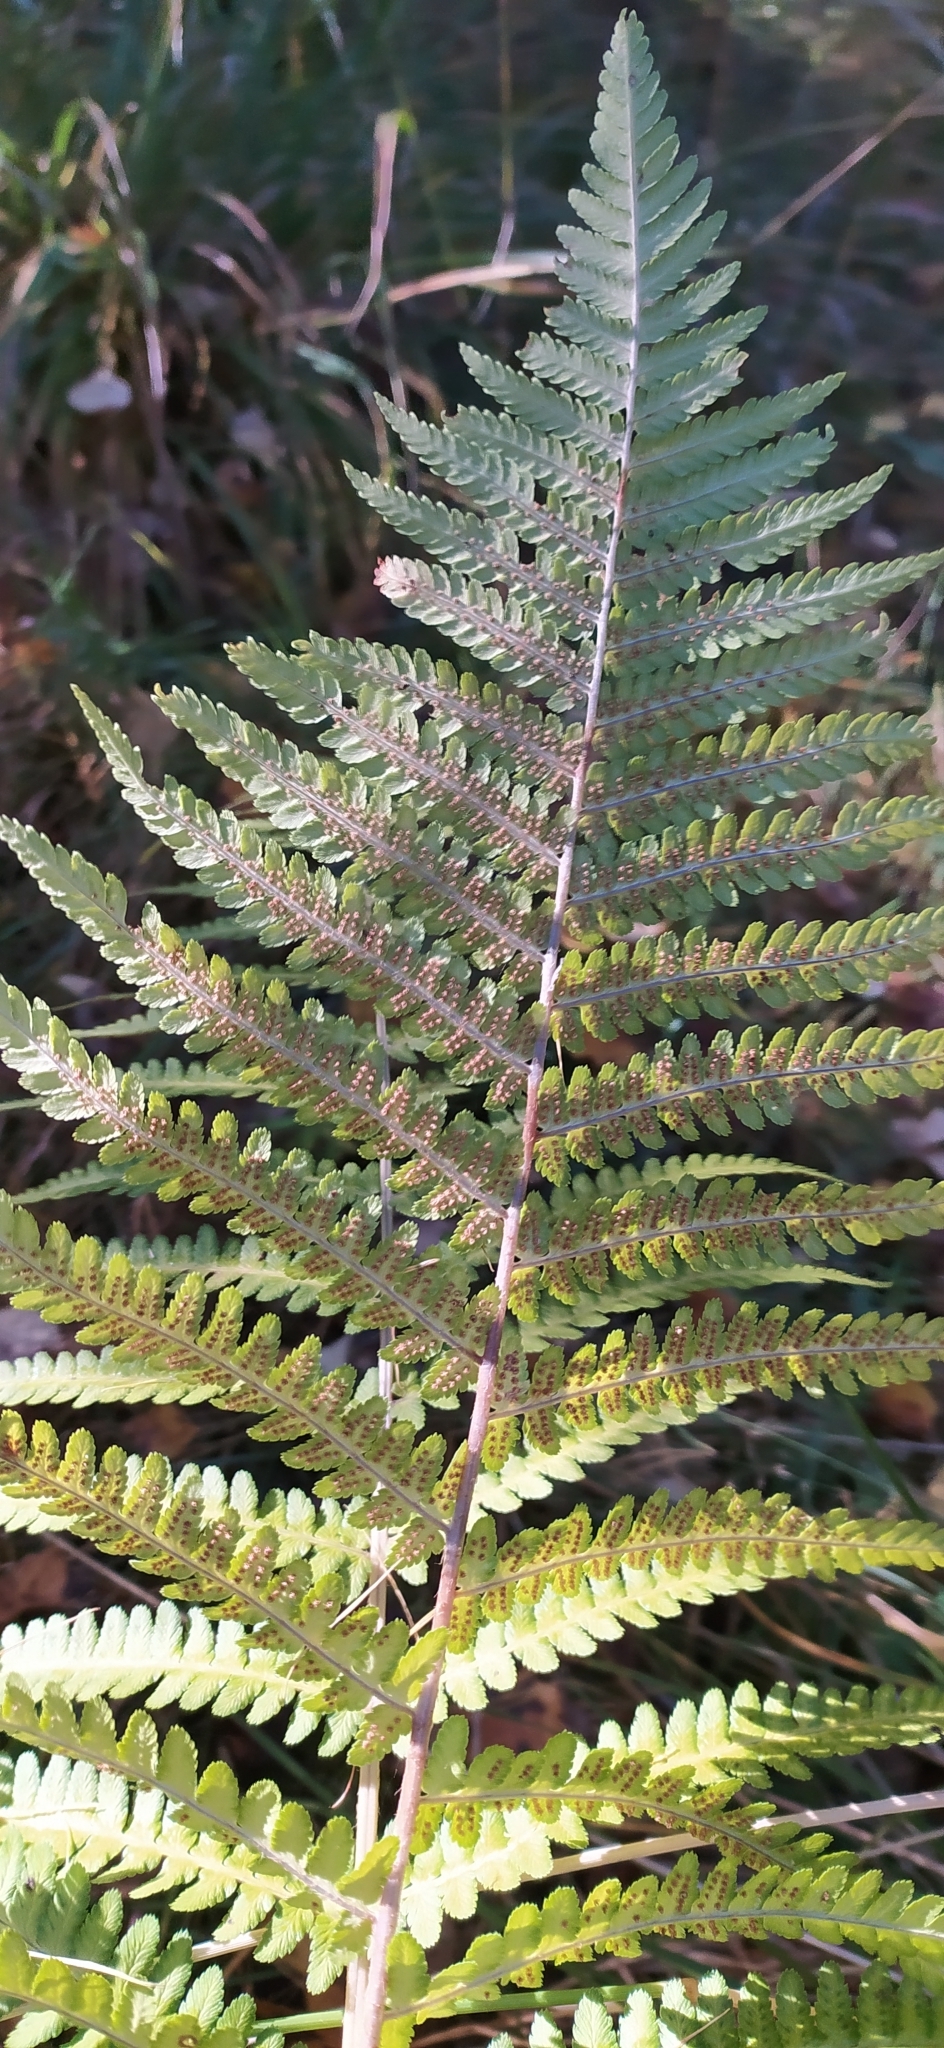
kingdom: Plantae
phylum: Tracheophyta
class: Polypodiopsida
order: Polypodiales
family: Dryopteridaceae
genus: Dryopteris
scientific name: Dryopteris filix-mas
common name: Male fern
